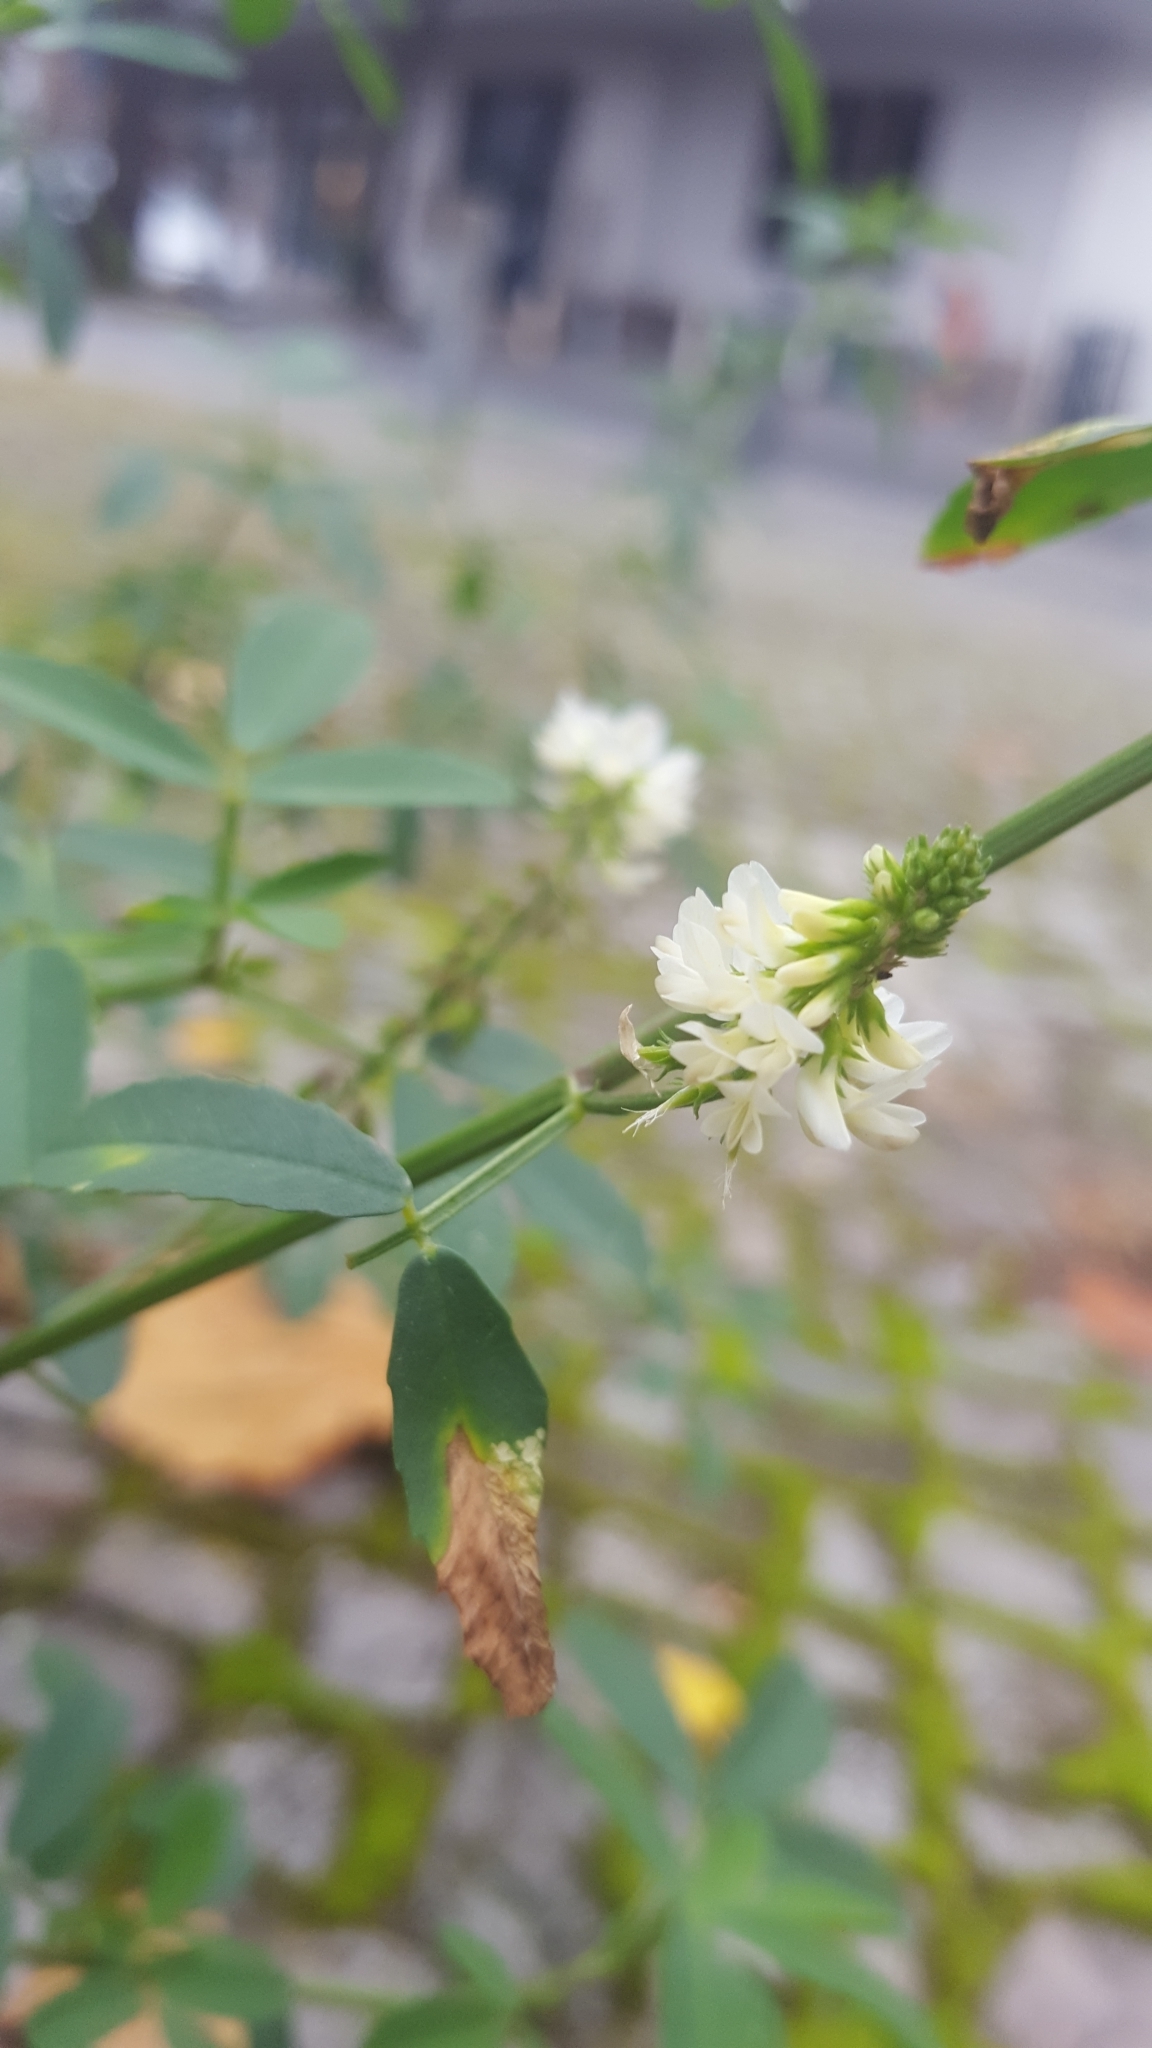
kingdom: Plantae
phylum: Tracheophyta
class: Magnoliopsida
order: Fabales
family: Fabaceae
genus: Melilotus
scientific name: Melilotus albus
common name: White melilot
